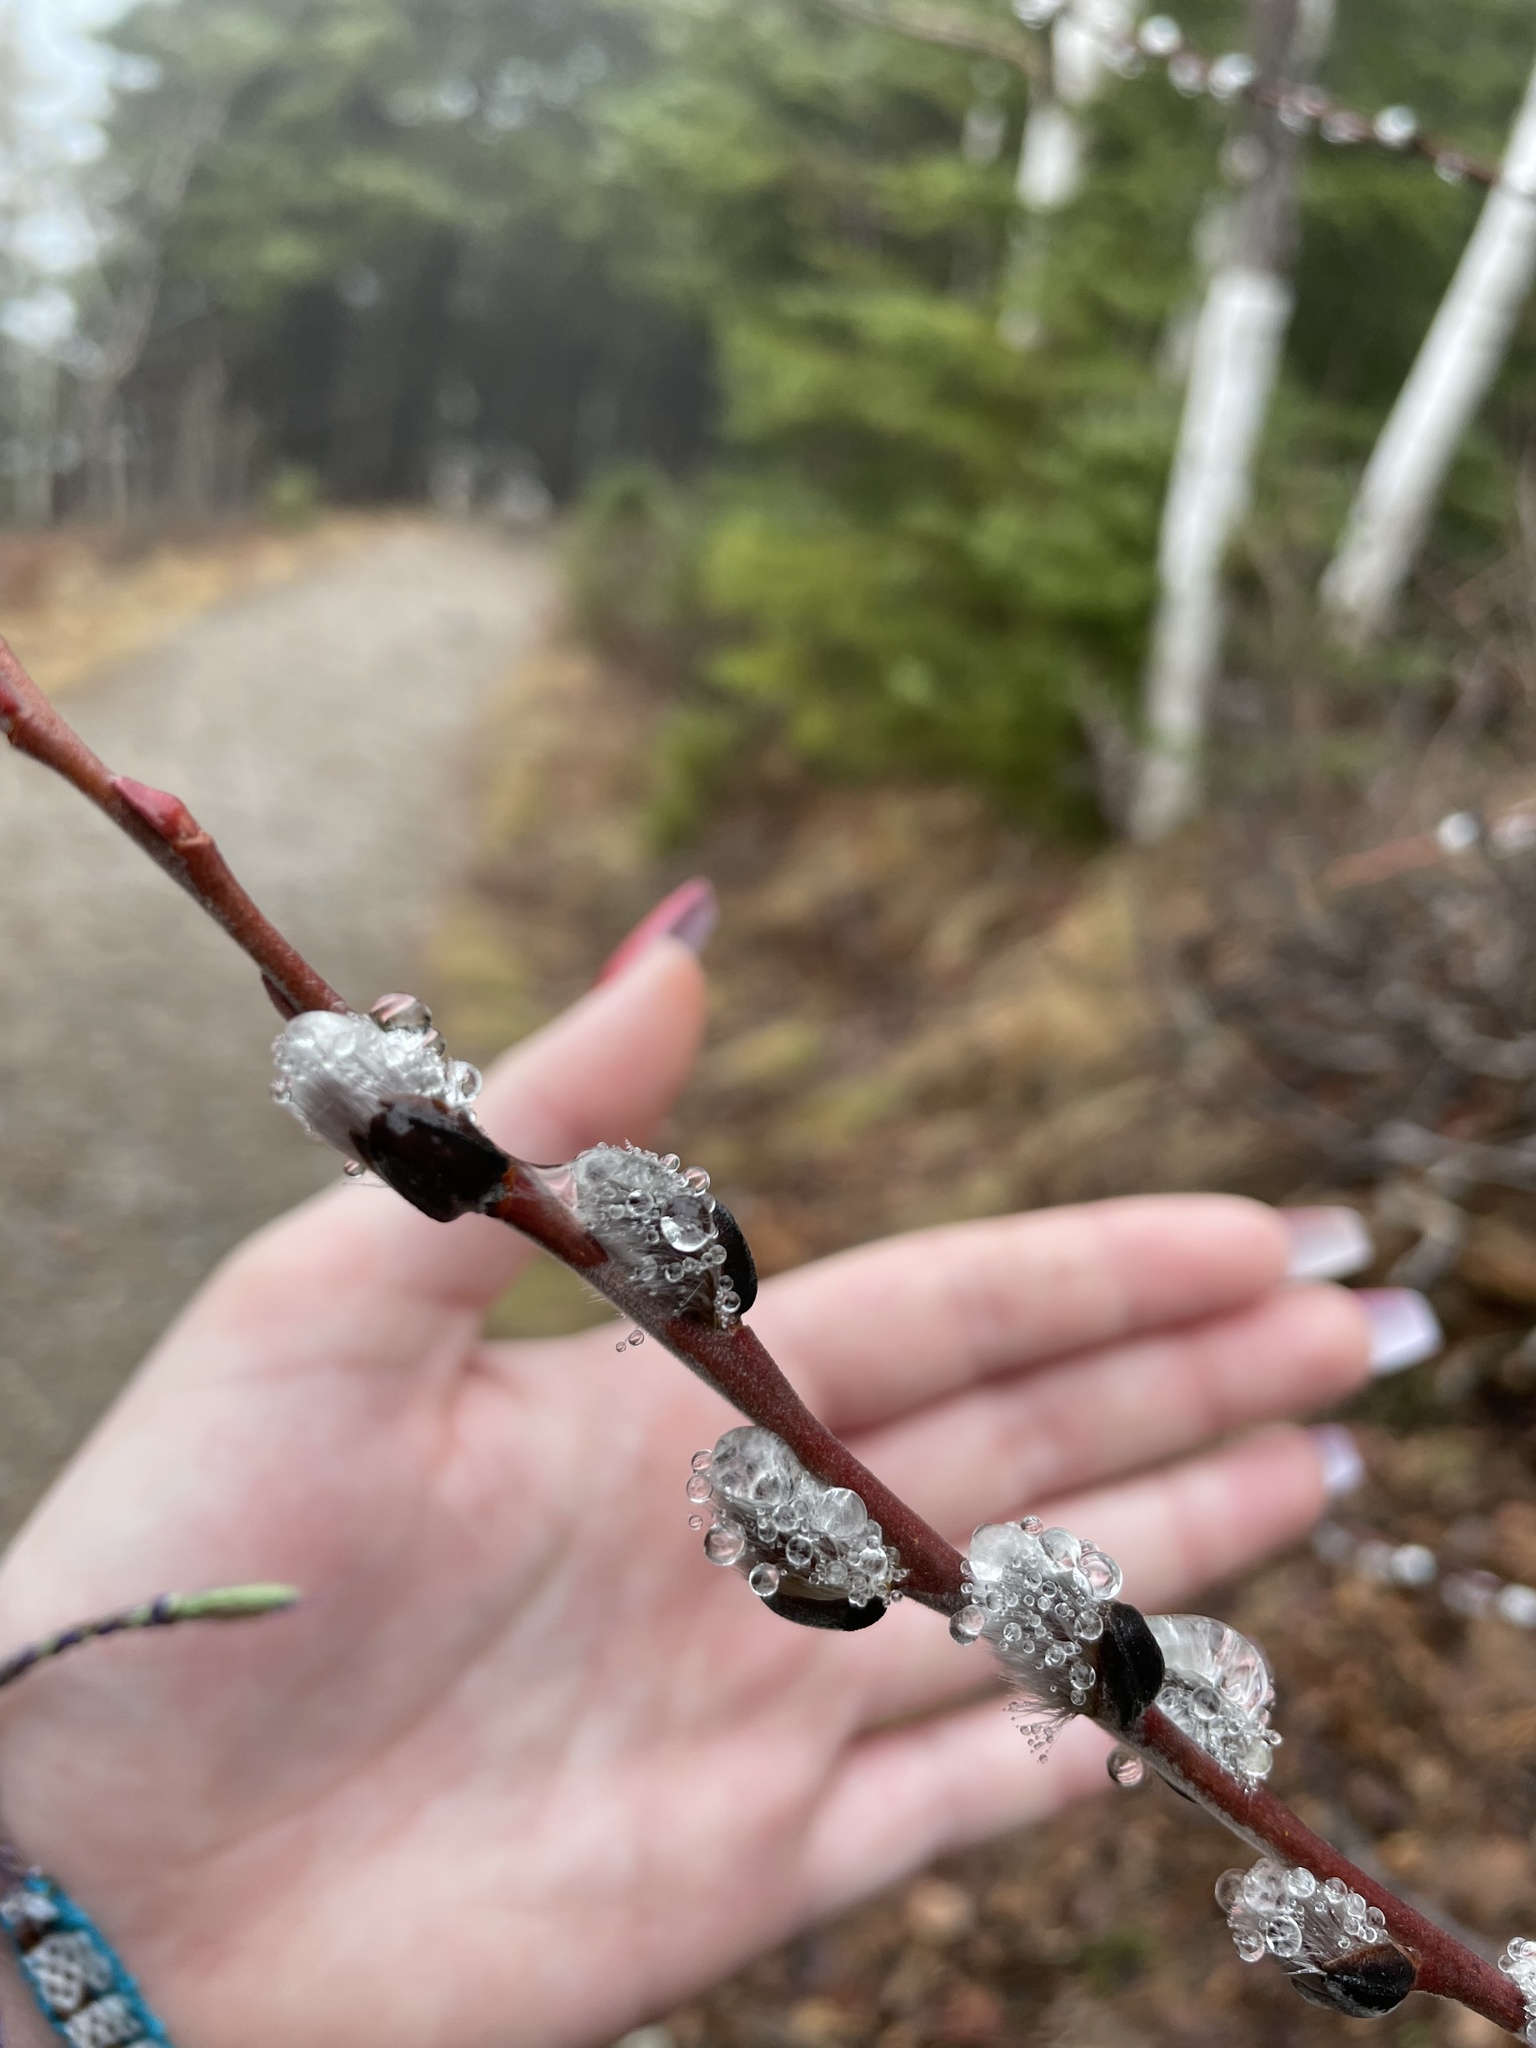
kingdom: Plantae
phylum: Tracheophyta
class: Magnoliopsida
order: Malpighiales
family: Salicaceae
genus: Salix
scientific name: Salix discolor
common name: Glaucous willow
